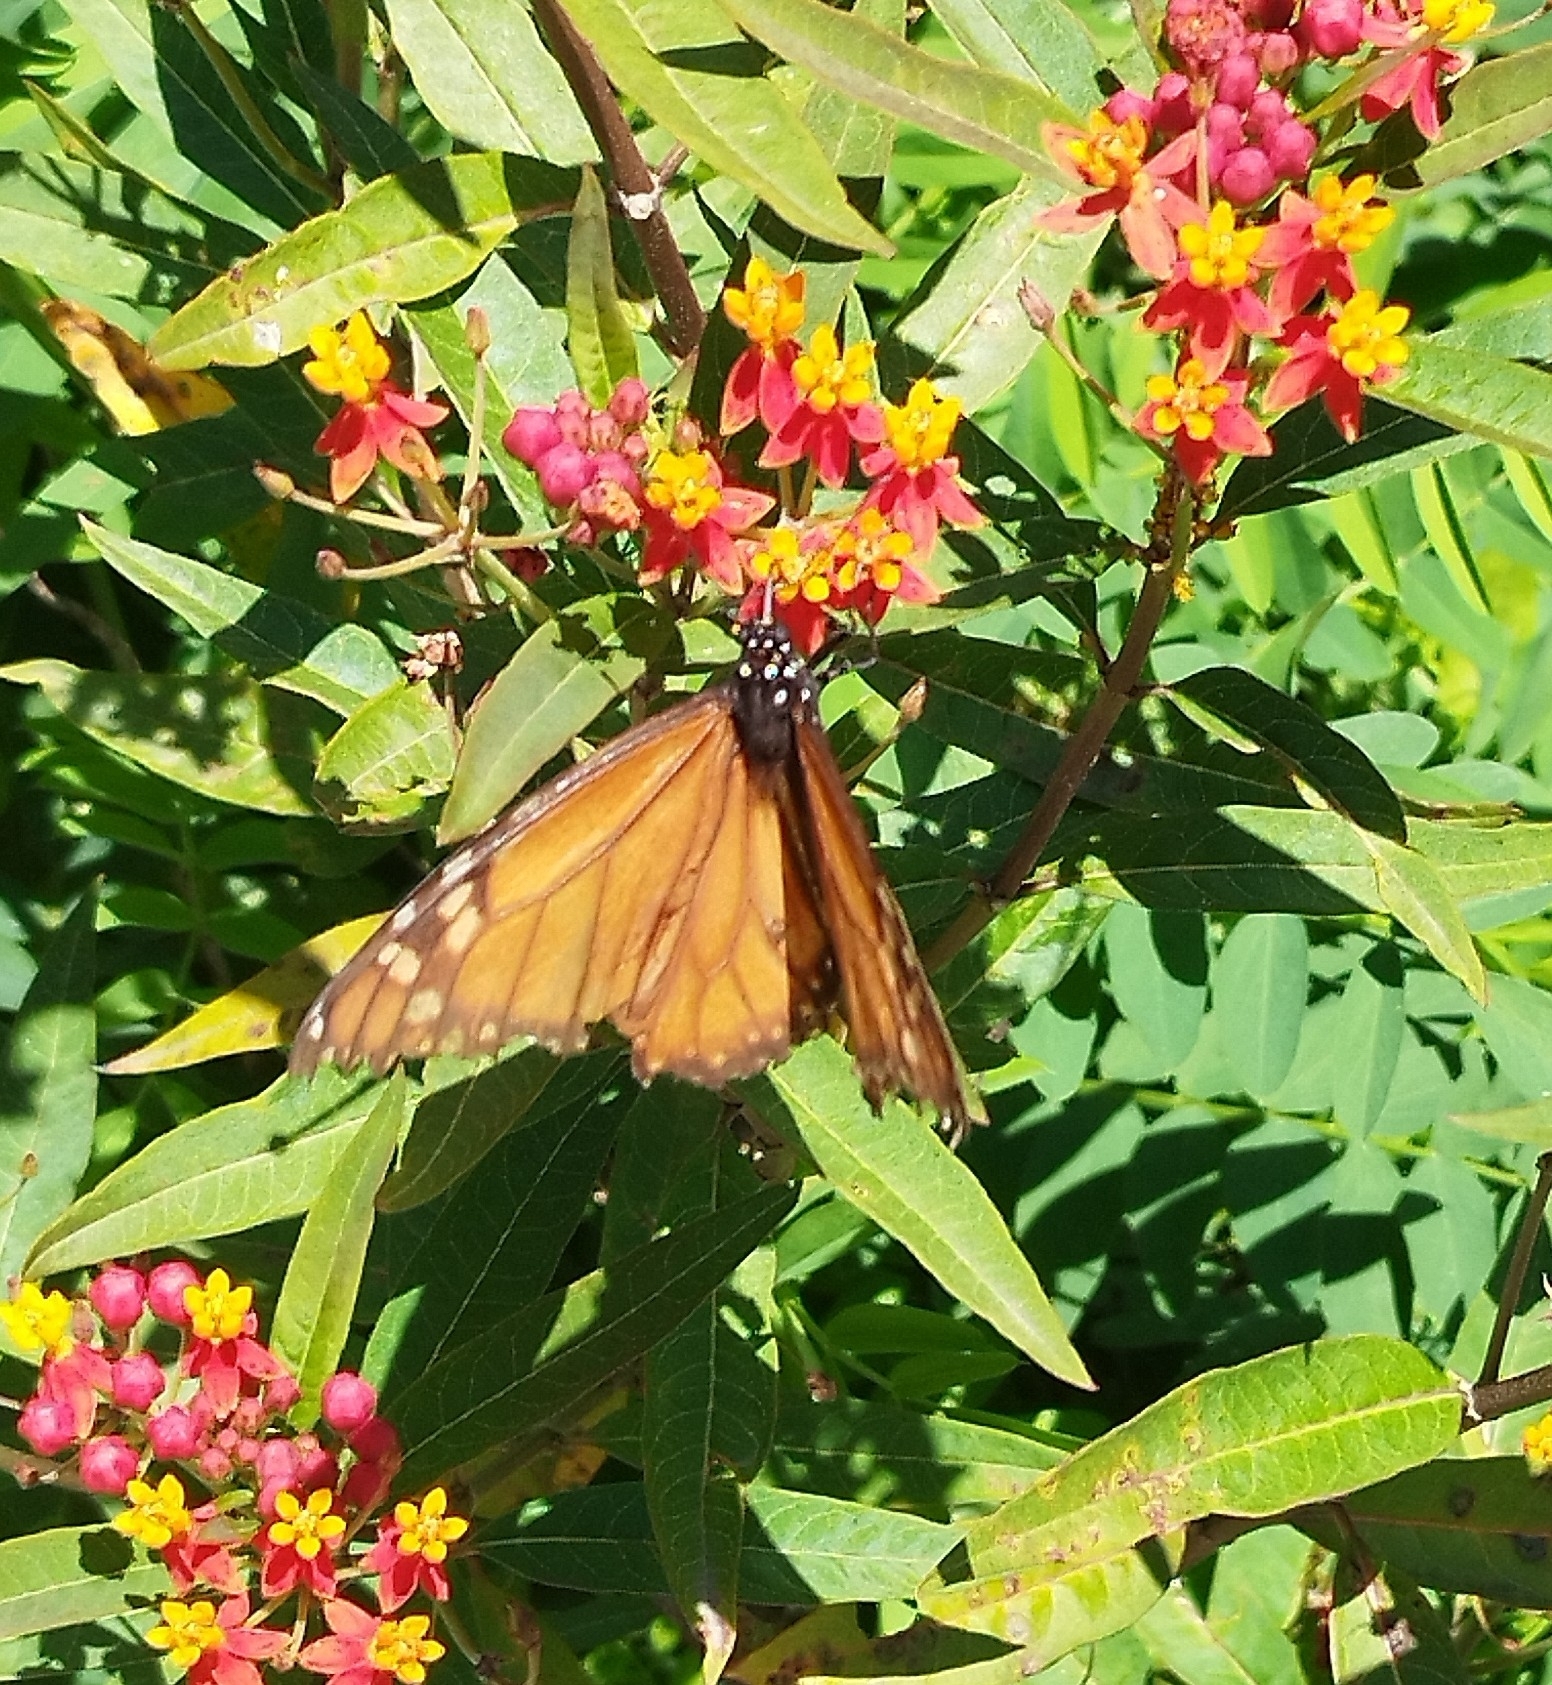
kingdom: Animalia
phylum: Arthropoda
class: Insecta
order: Lepidoptera
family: Nymphalidae
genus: Danaus
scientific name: Danaus erippus
